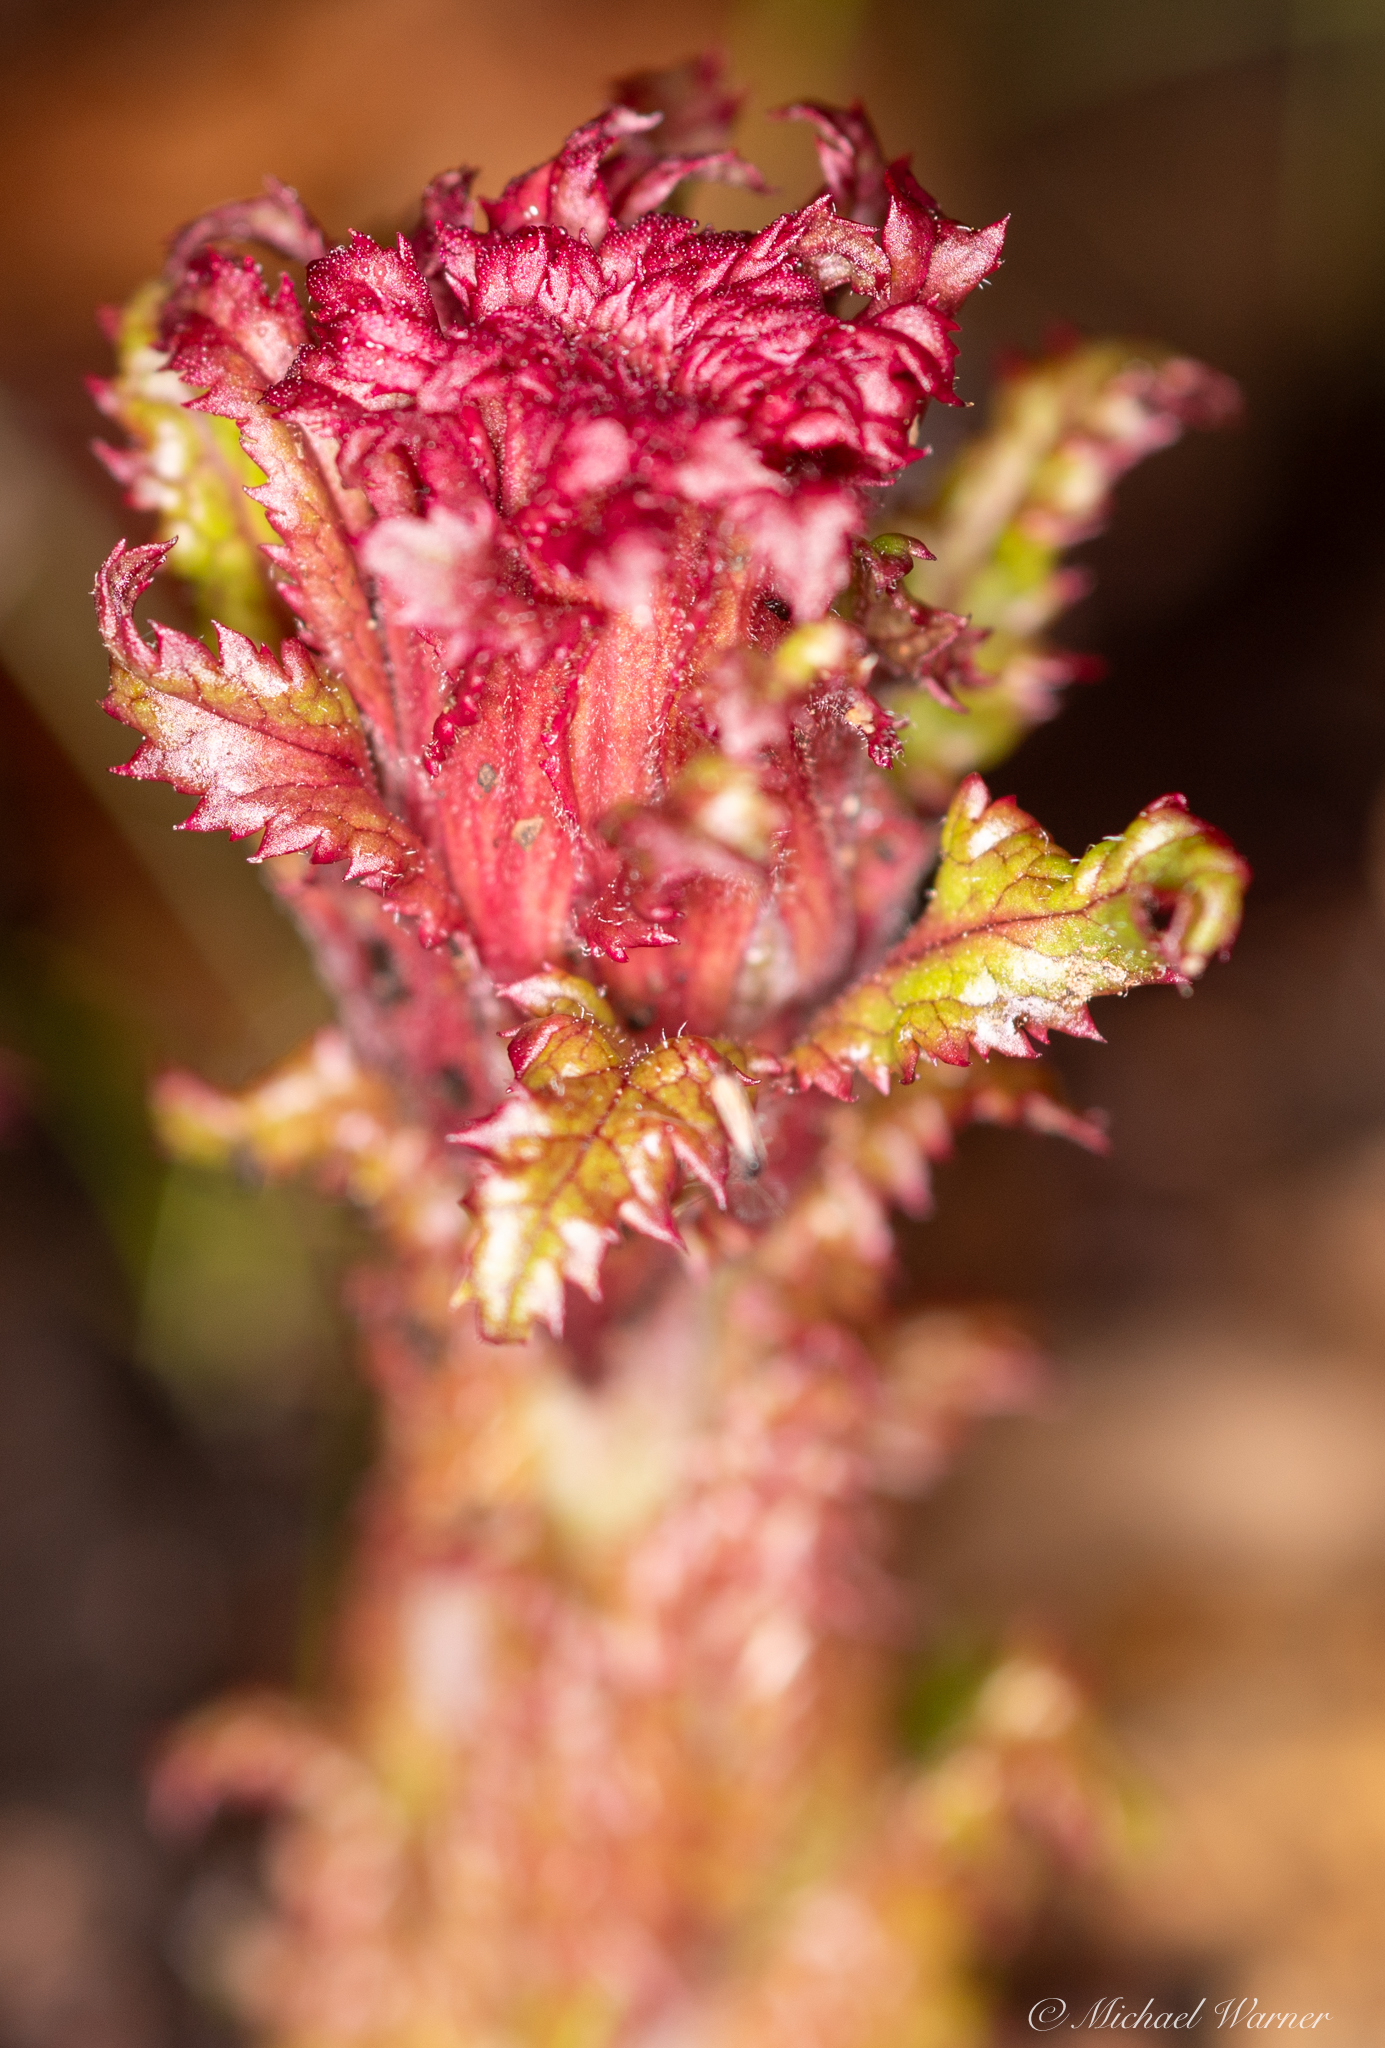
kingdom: Plantae
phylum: Tracheophyta
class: Magnoliopsida
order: Lamiales
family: Orobanchaceae
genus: Pedicularis
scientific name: Pedicularis densiflora
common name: Indian warrior
